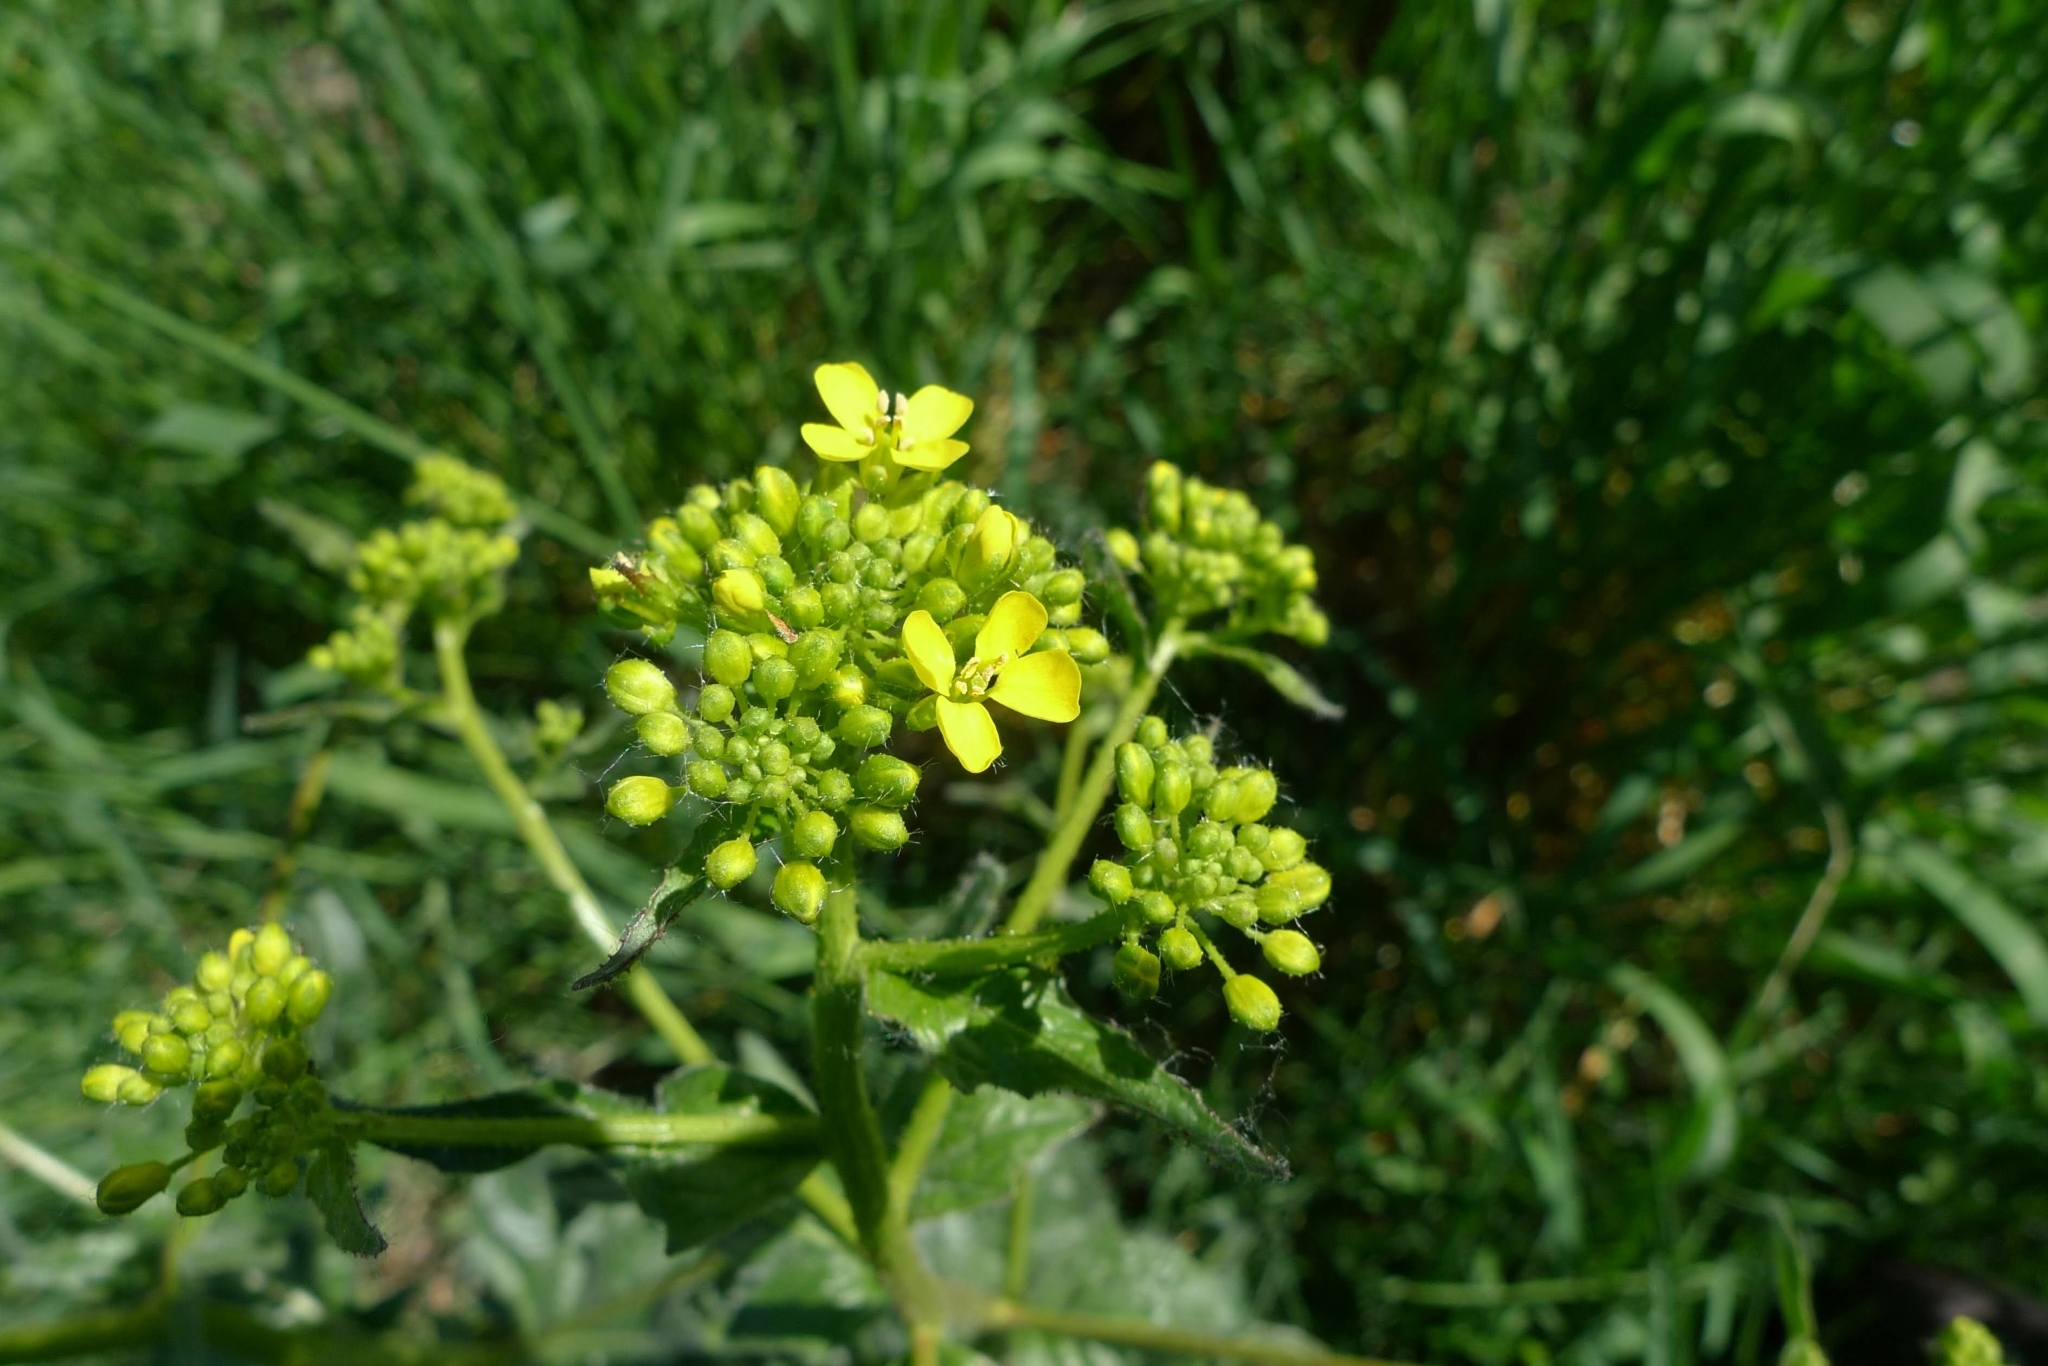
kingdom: Plantae
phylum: Tracheophyta
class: Magnoliopsida
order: Brassicales
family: Brassicaceae
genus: Bunias
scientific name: Bunias orientalis
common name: Warty-cabbage
